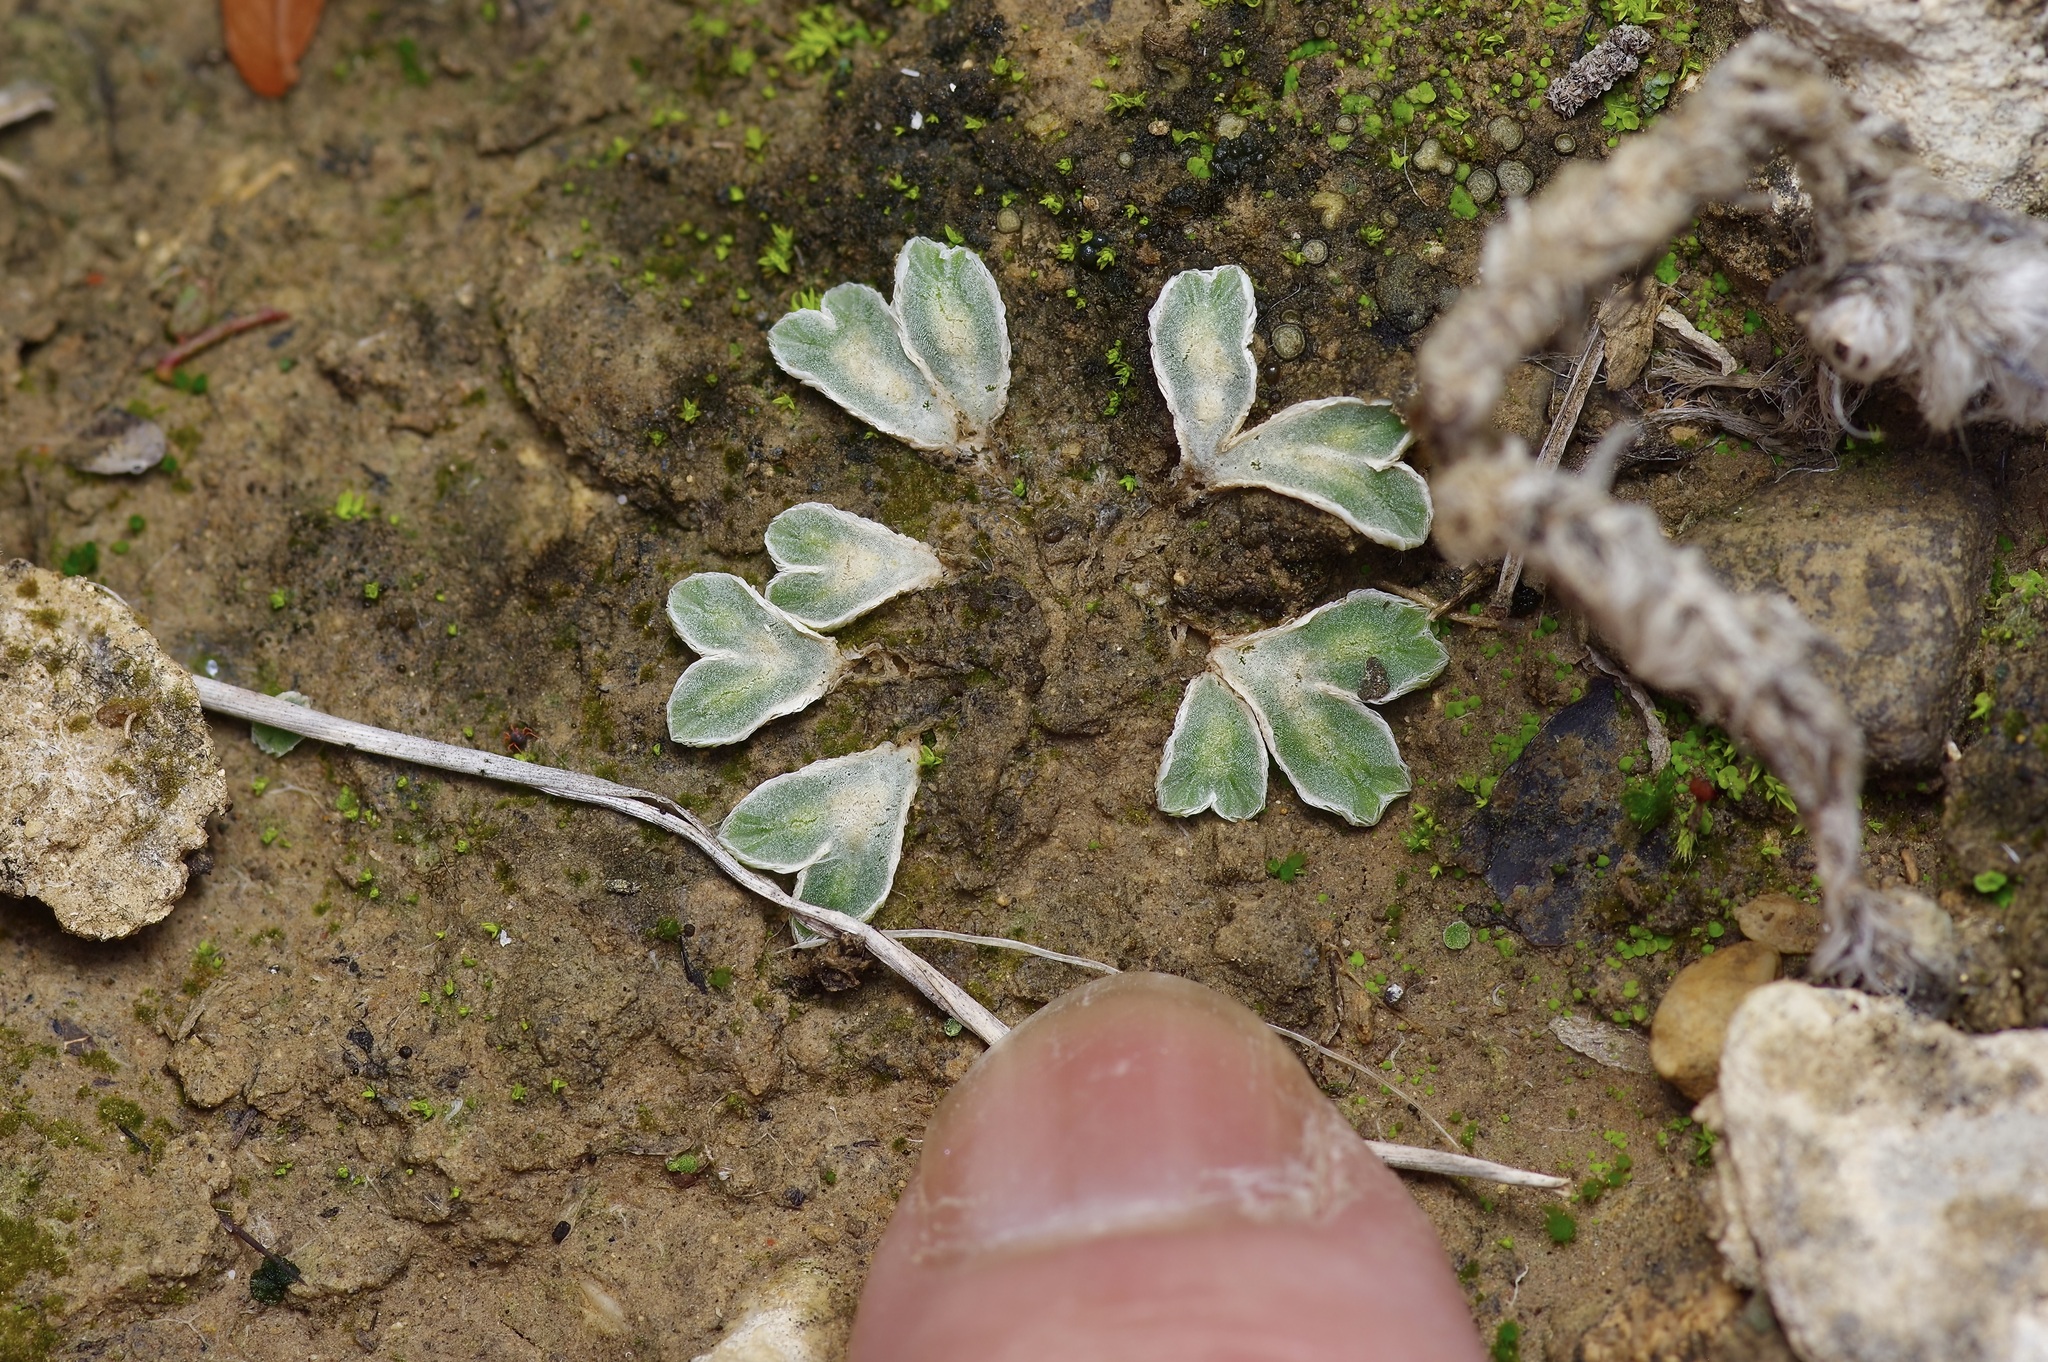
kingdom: Plantae
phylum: Marchantiophyta
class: Marchantiopsida
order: Marchantiales
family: Ricciaceae
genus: Riccia
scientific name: Riccia lamellosa
